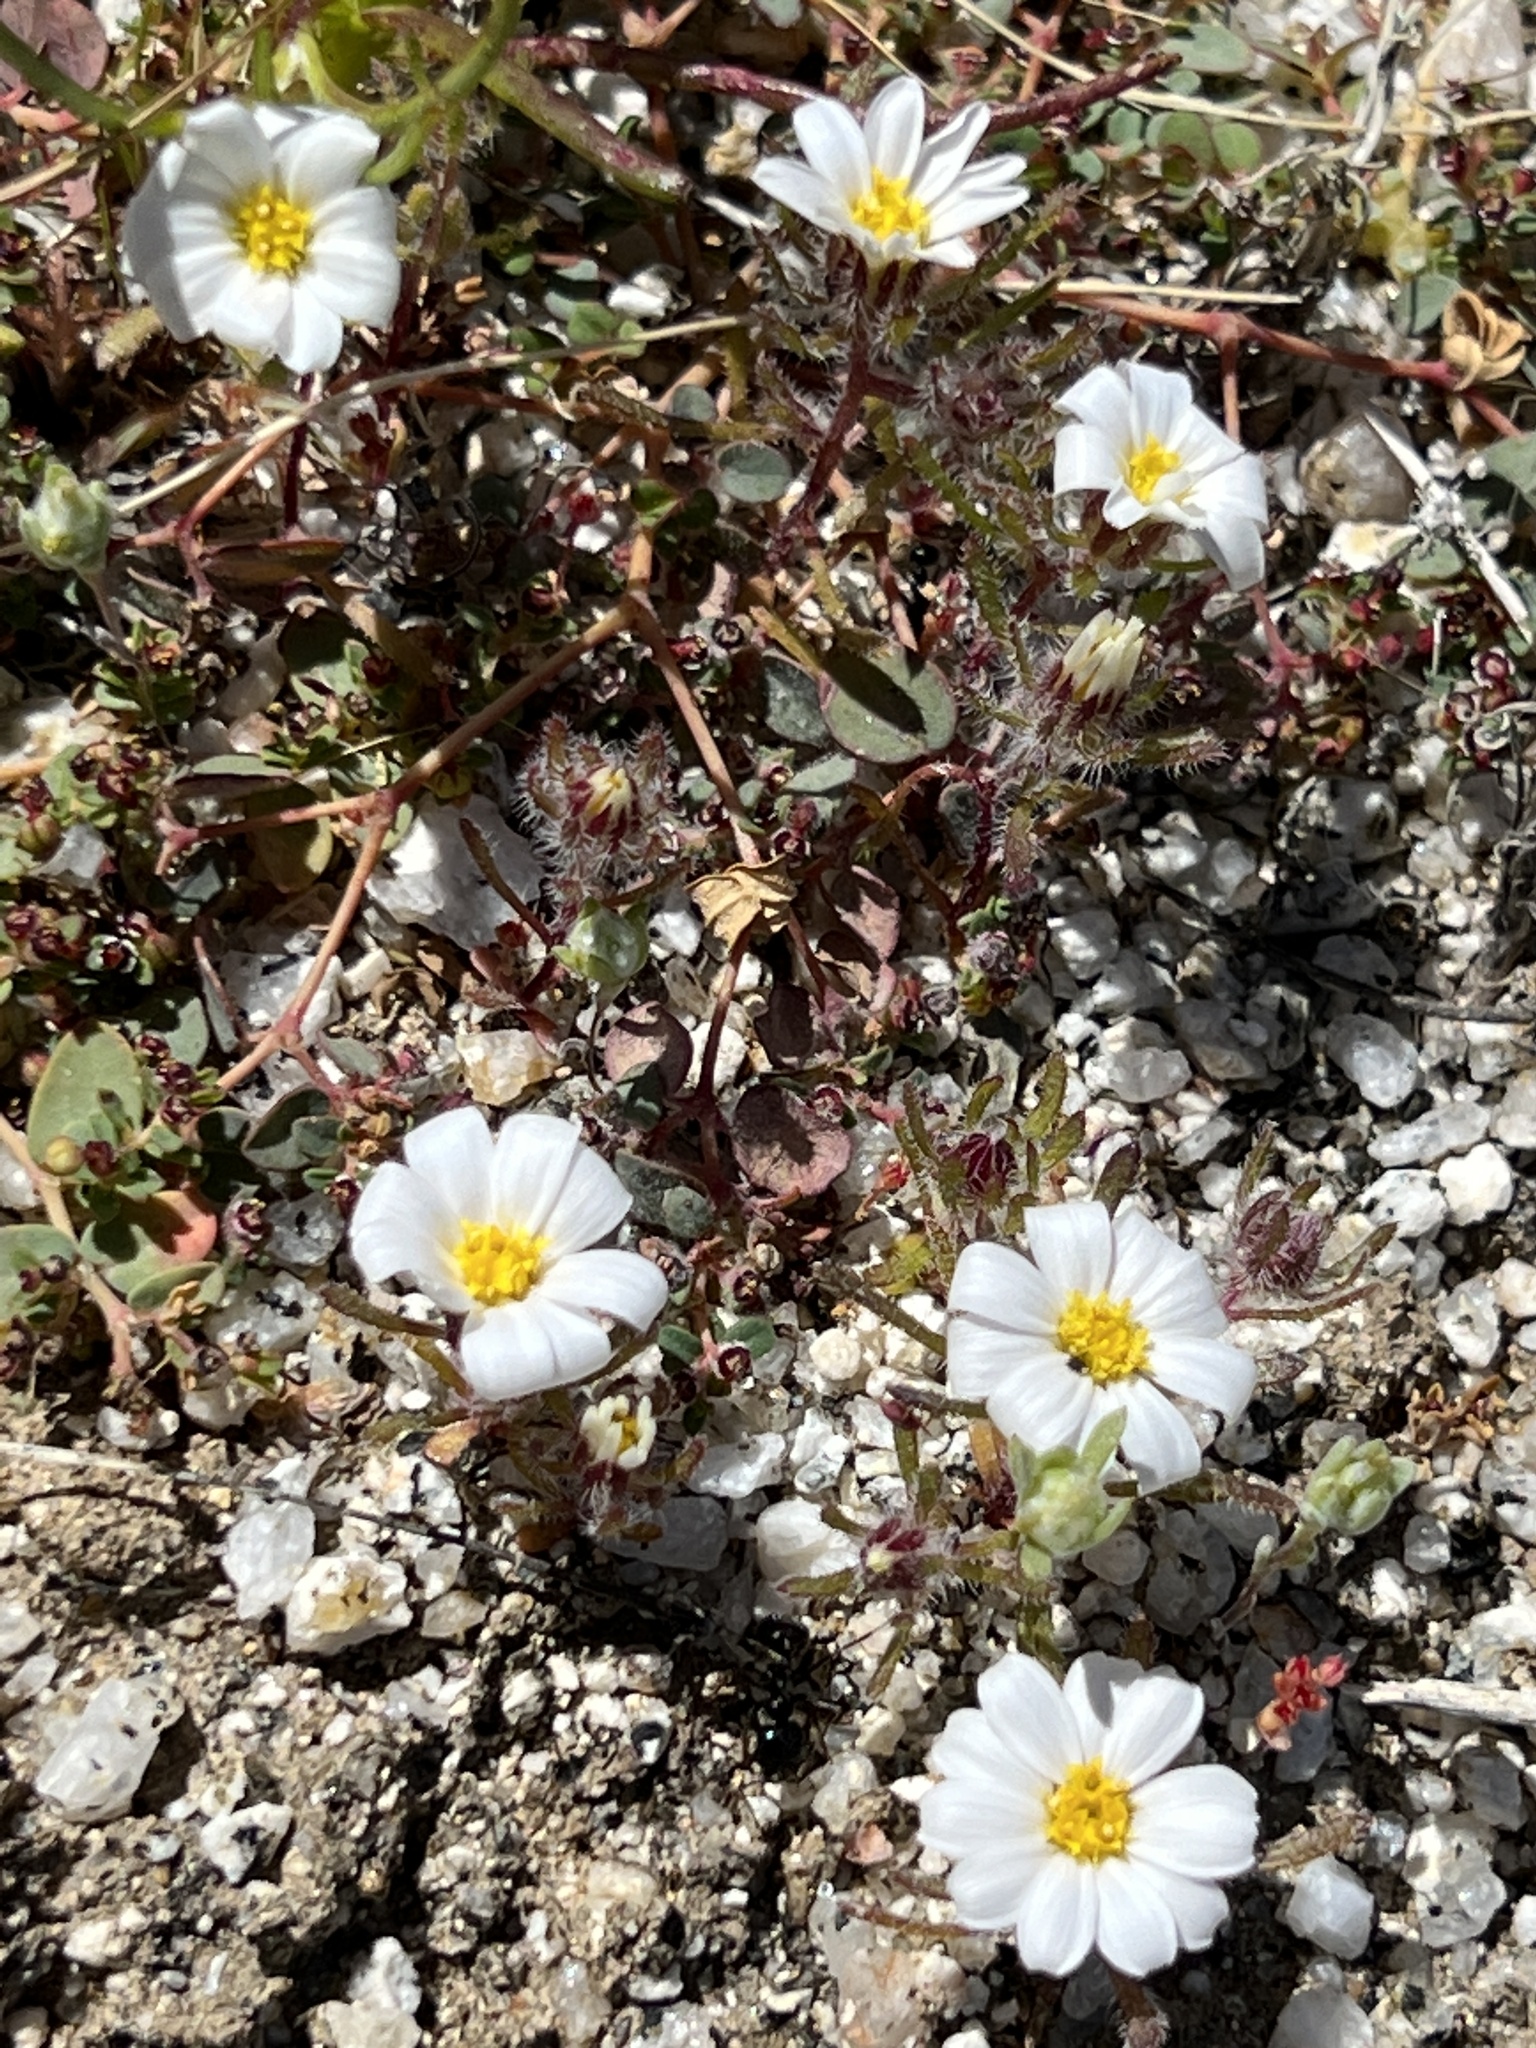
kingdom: Plantae
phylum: Tracheophyta
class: Magnoliopsida
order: Asterales
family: Asteraceae
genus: Monoptilon
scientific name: Monoptilon bellioides
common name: Bristly desertstar
